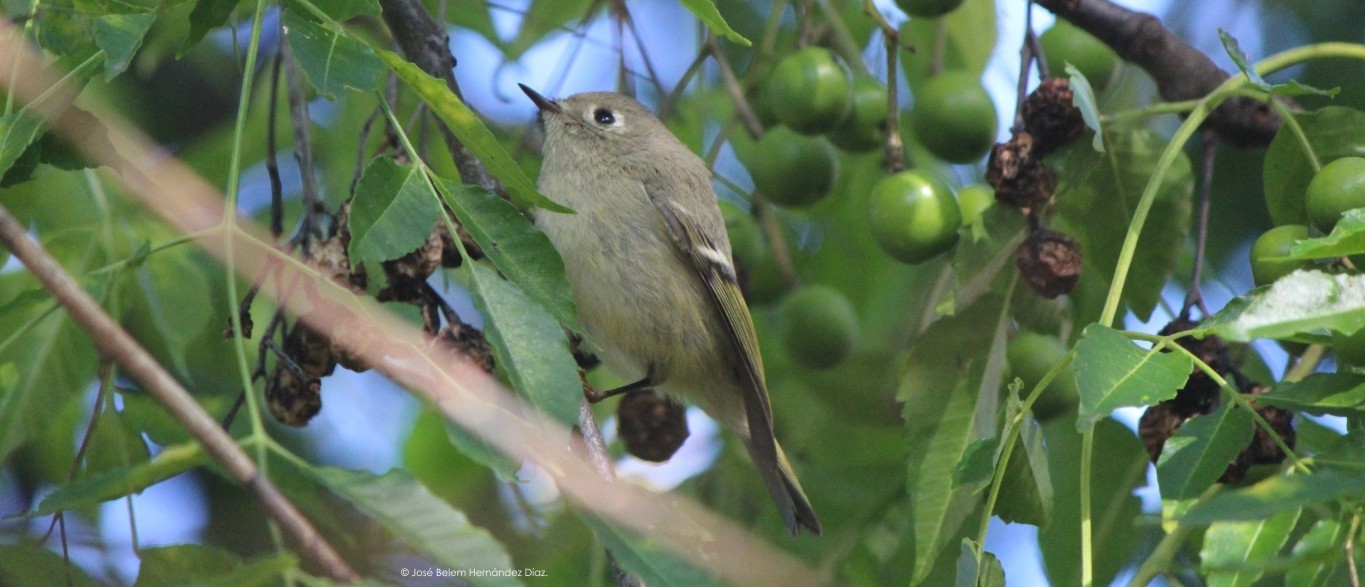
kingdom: Animalia
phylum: Chordata
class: Aves
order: Passeriformes
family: Regulidae
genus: Regulus
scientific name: Regulus calendula
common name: Ruby-crowned kinglet
